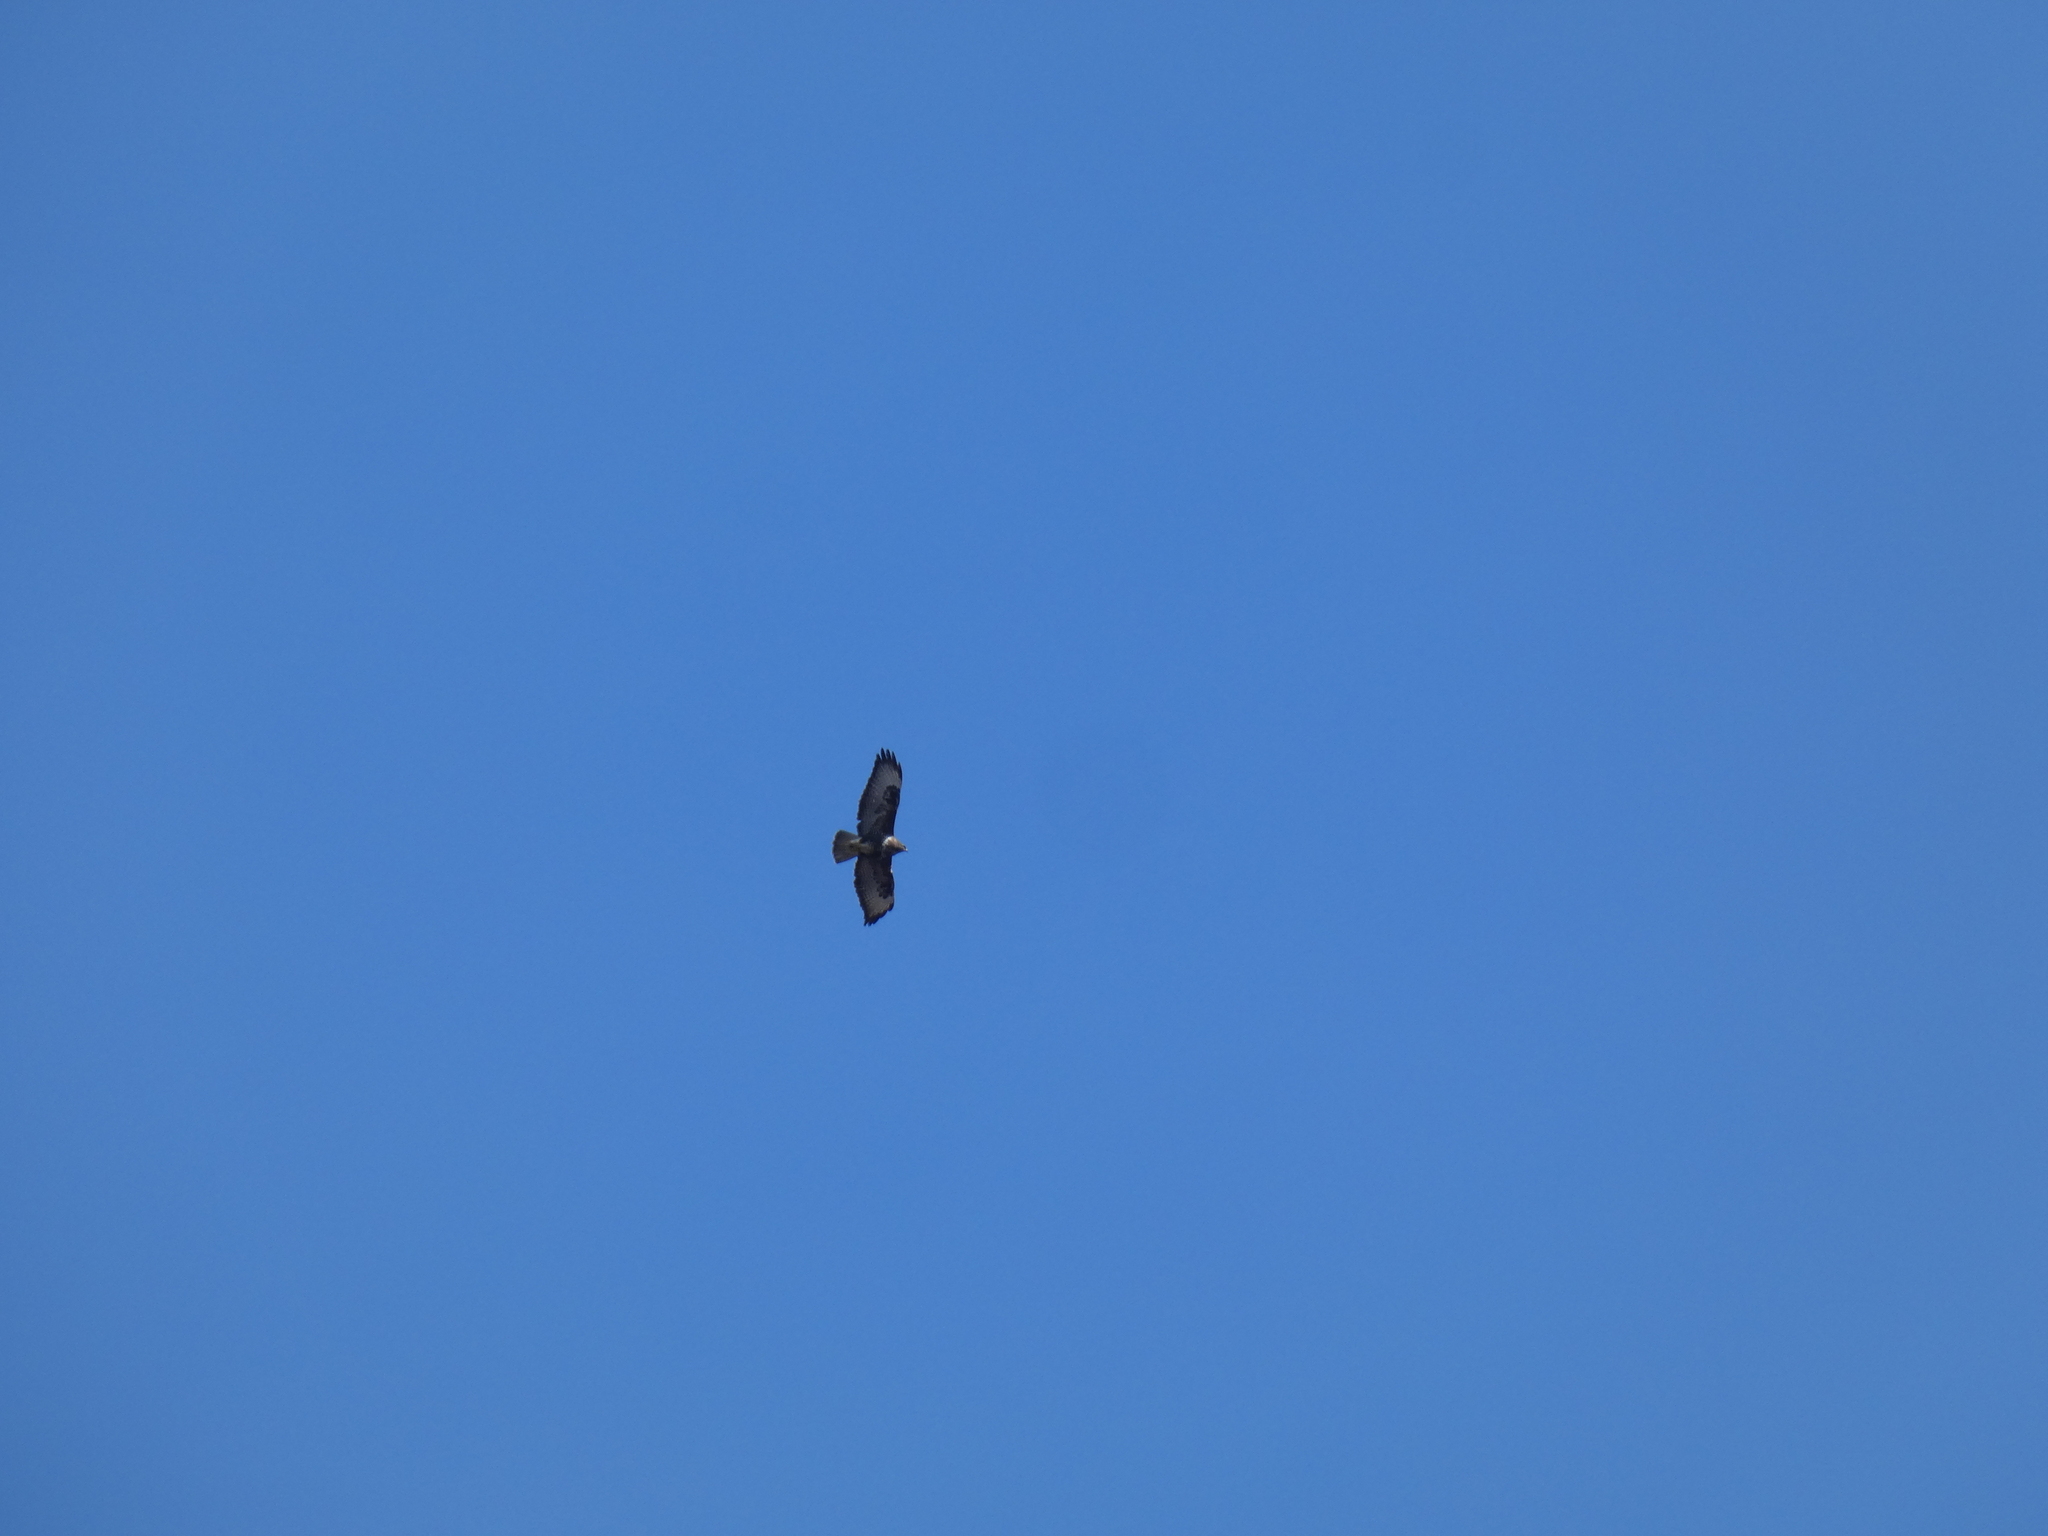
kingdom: Animalia
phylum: Chordata
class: Aves
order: Accipitriformes
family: Accipitridae
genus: Buteo
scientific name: Buteo buteo
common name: Common buzzard
